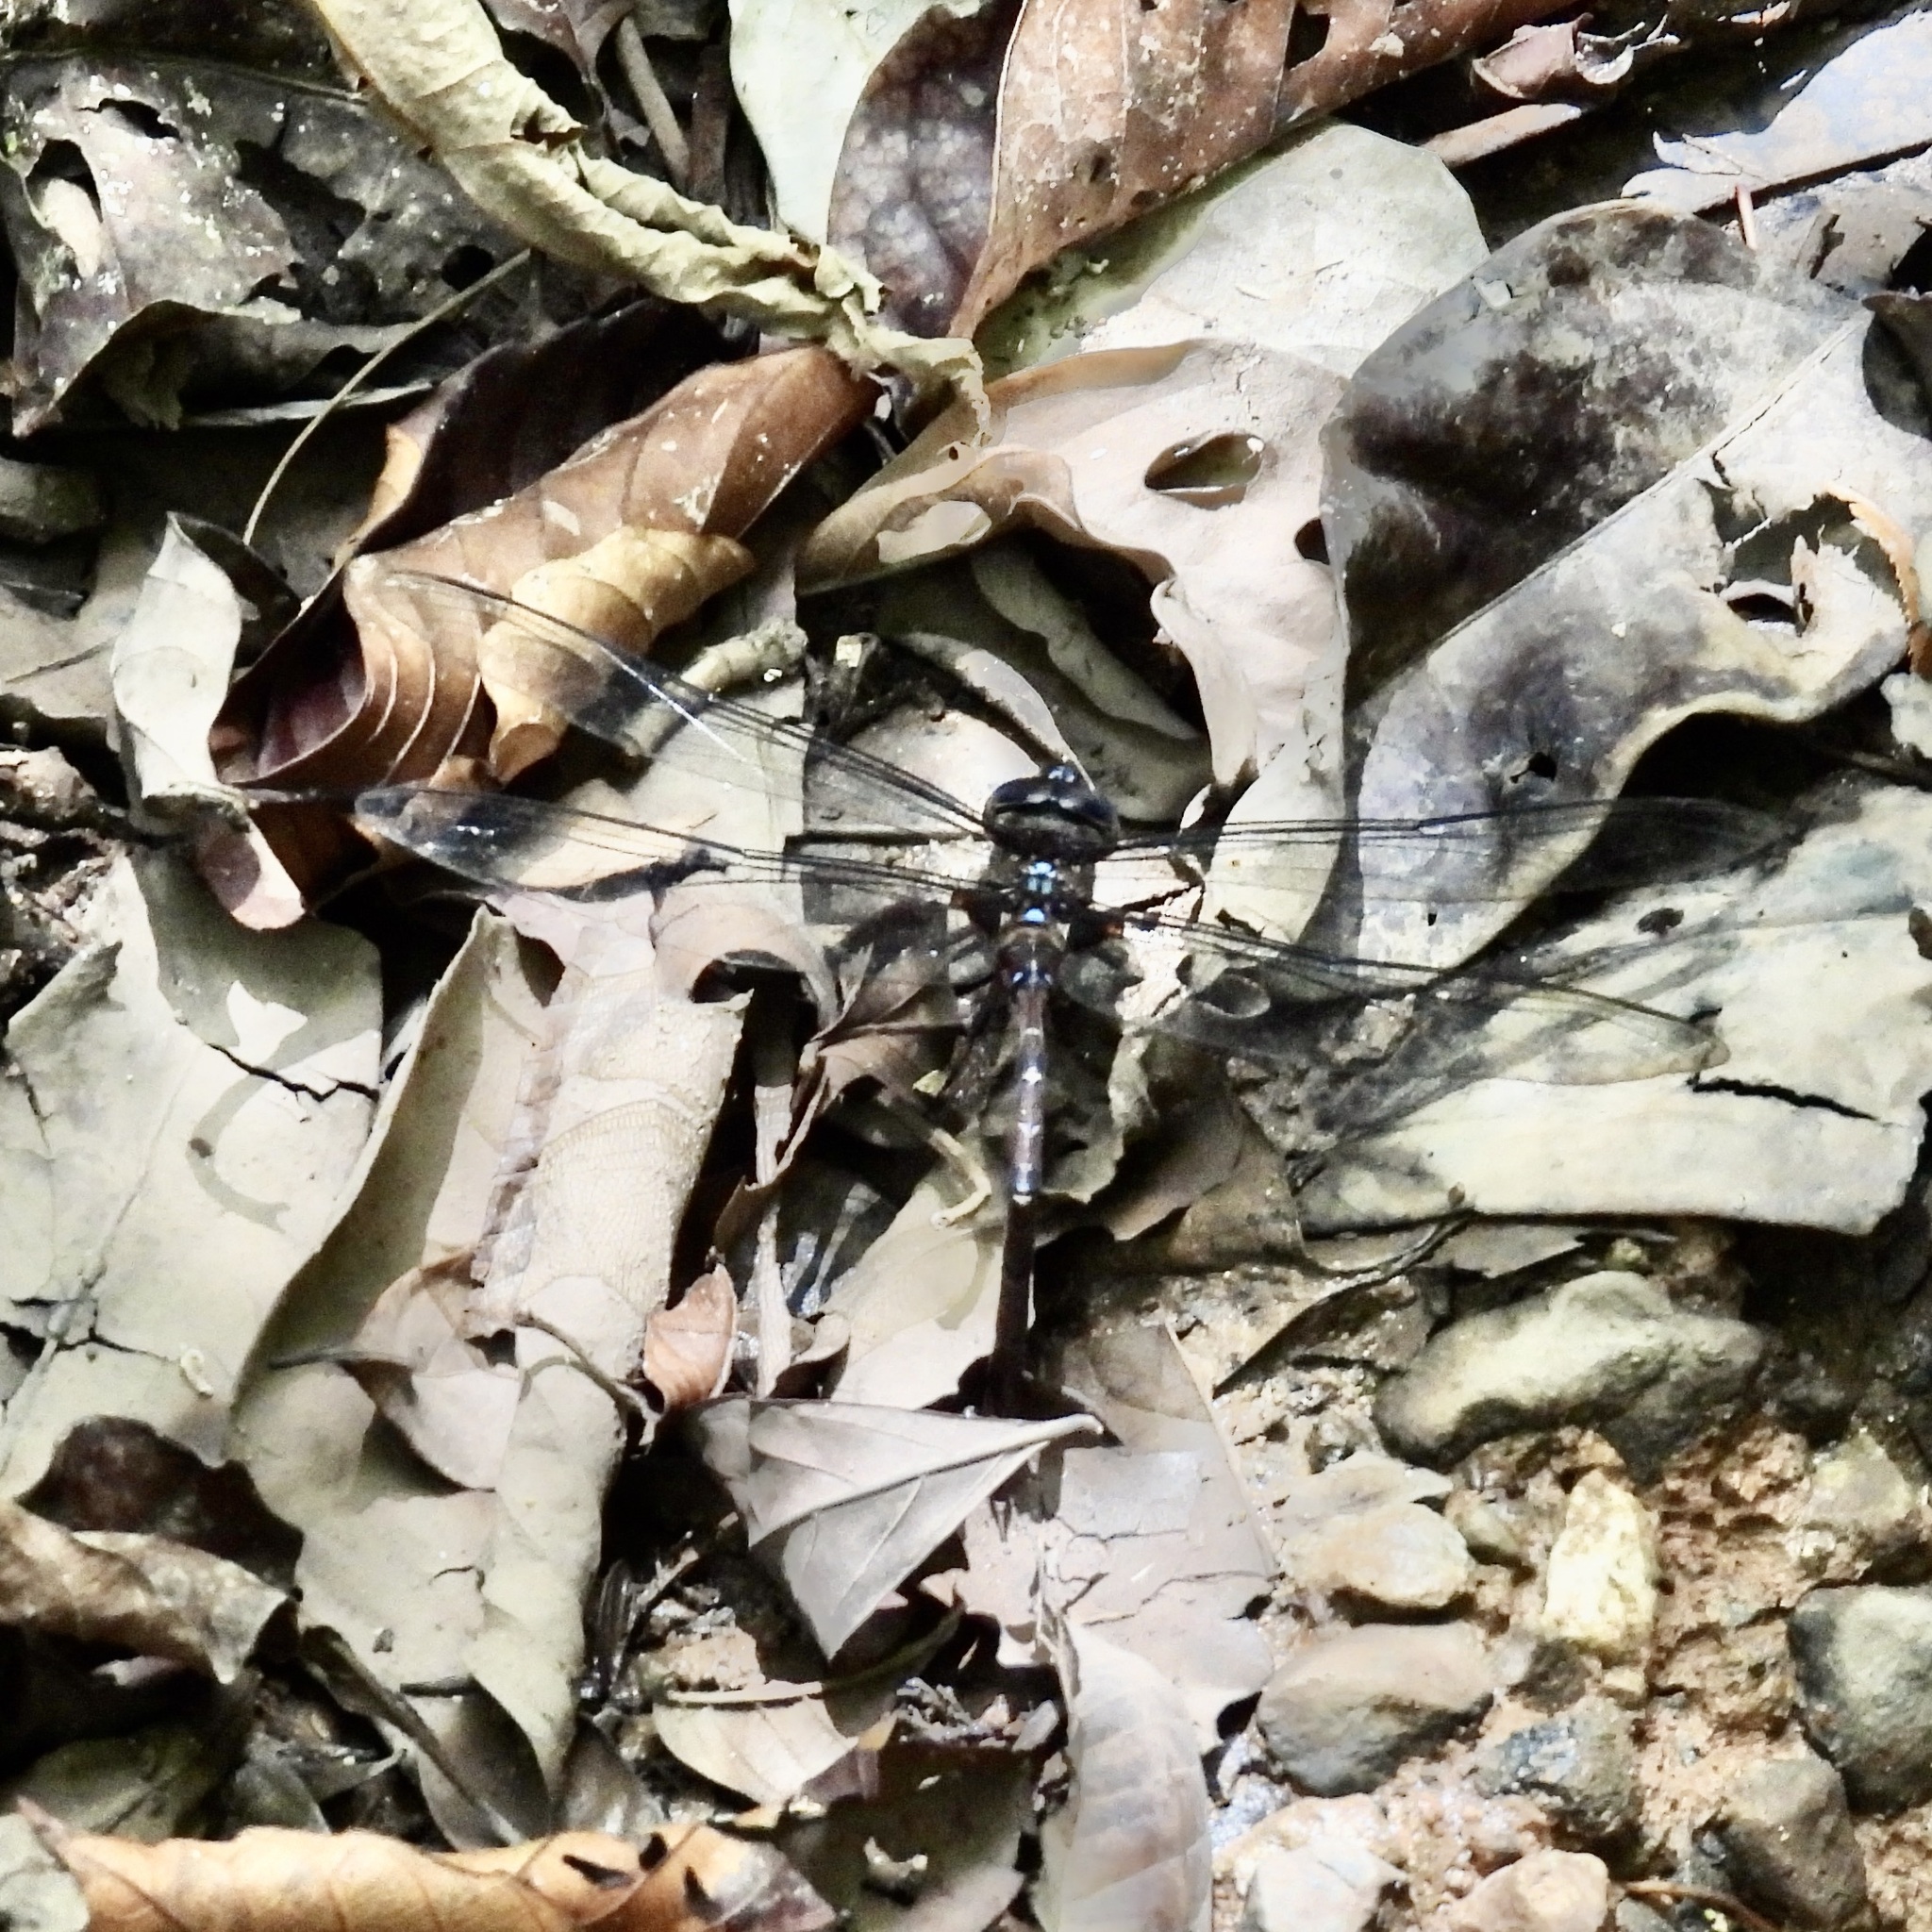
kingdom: Animalia
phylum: Arthropoda
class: Insecta
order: Odonata
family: Aeshnidae
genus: Gynacantha
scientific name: Gynacantha membranalis
